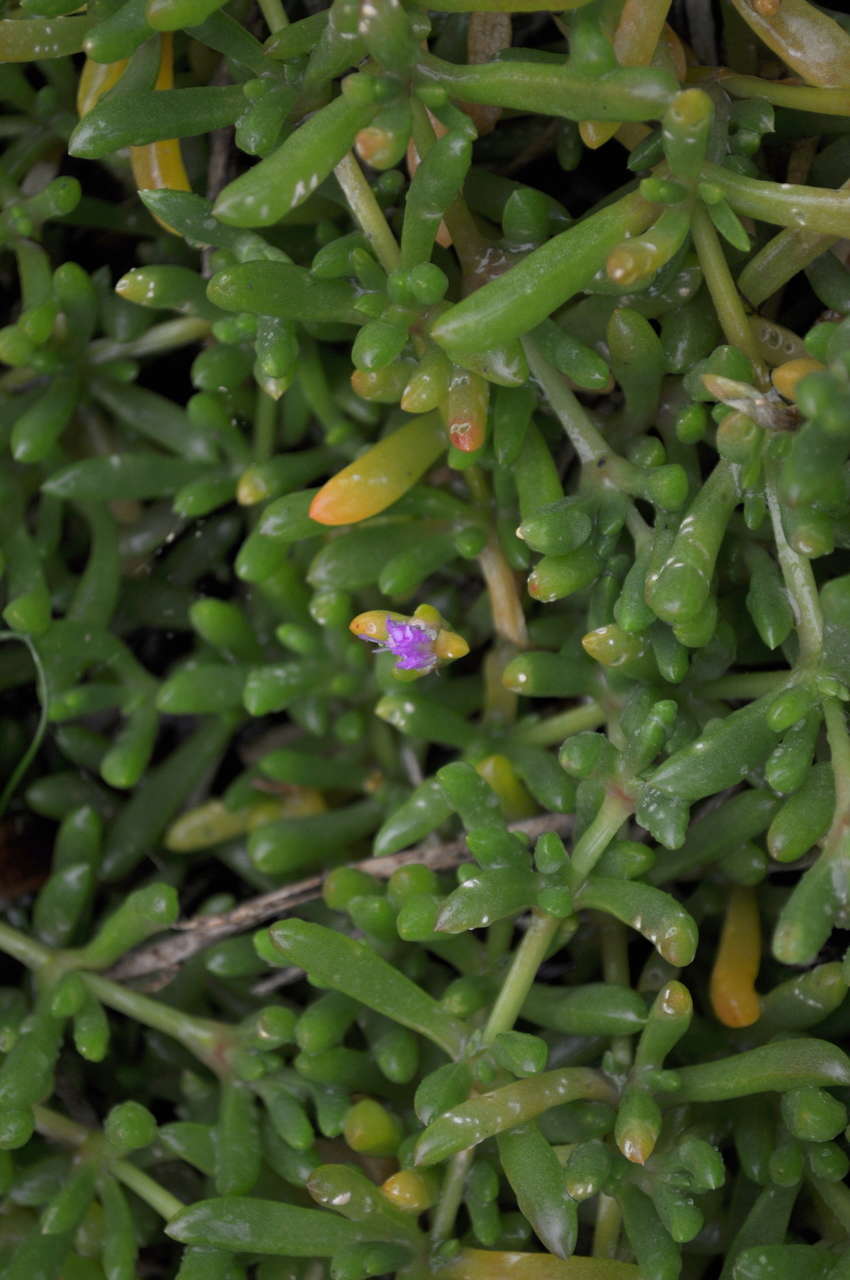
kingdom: Plantae
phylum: Tracheophyta
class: Magnoliopsida
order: Caryophyllales
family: Aizoaceae
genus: Disphyma
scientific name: Disphyma clavellatum
